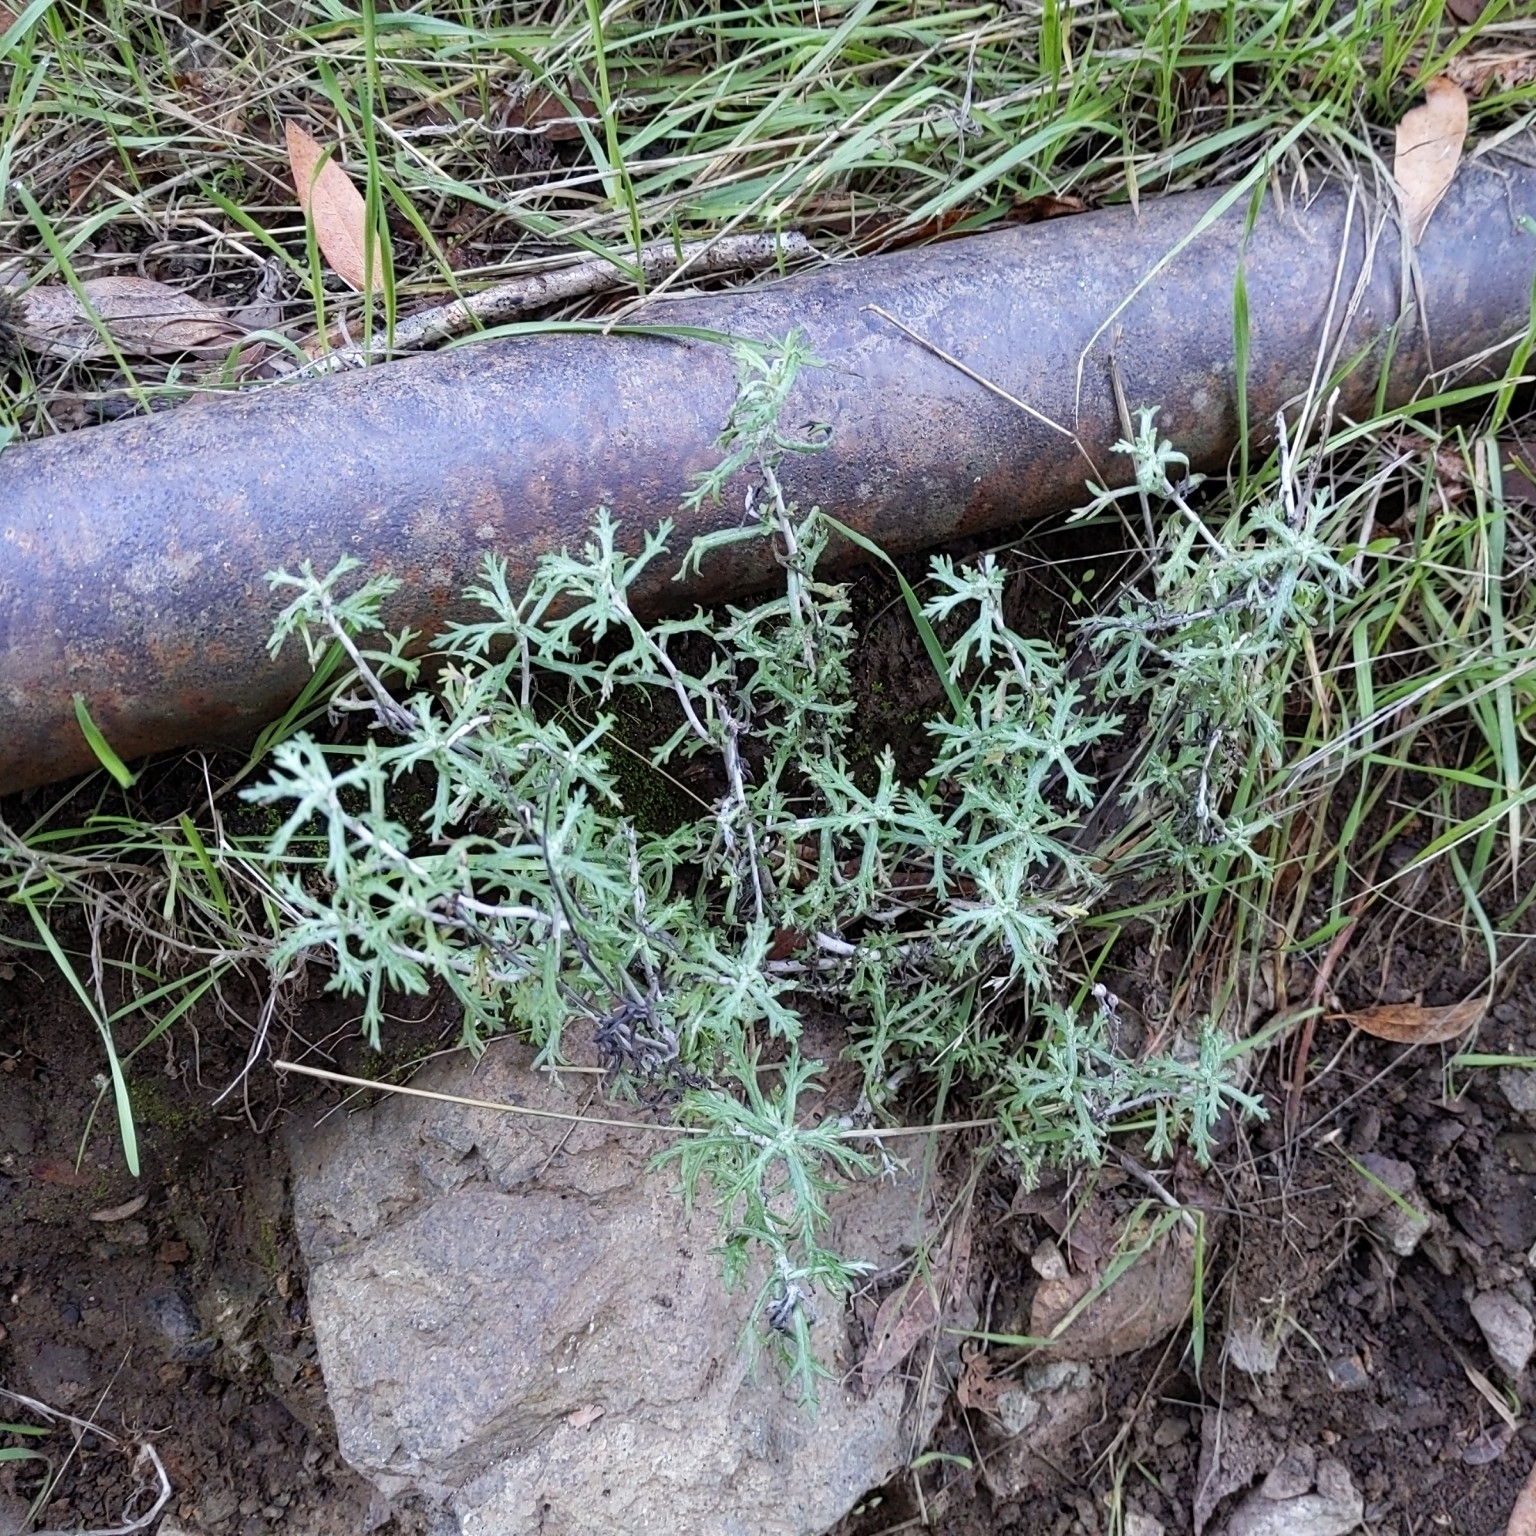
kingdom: Plantae
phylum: Tracheophyta
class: Magnoliopsida
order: Asterales
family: Asteraceae
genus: Eriophyllum
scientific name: Eriophyllum confertiflorum
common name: Golden-yarrow
